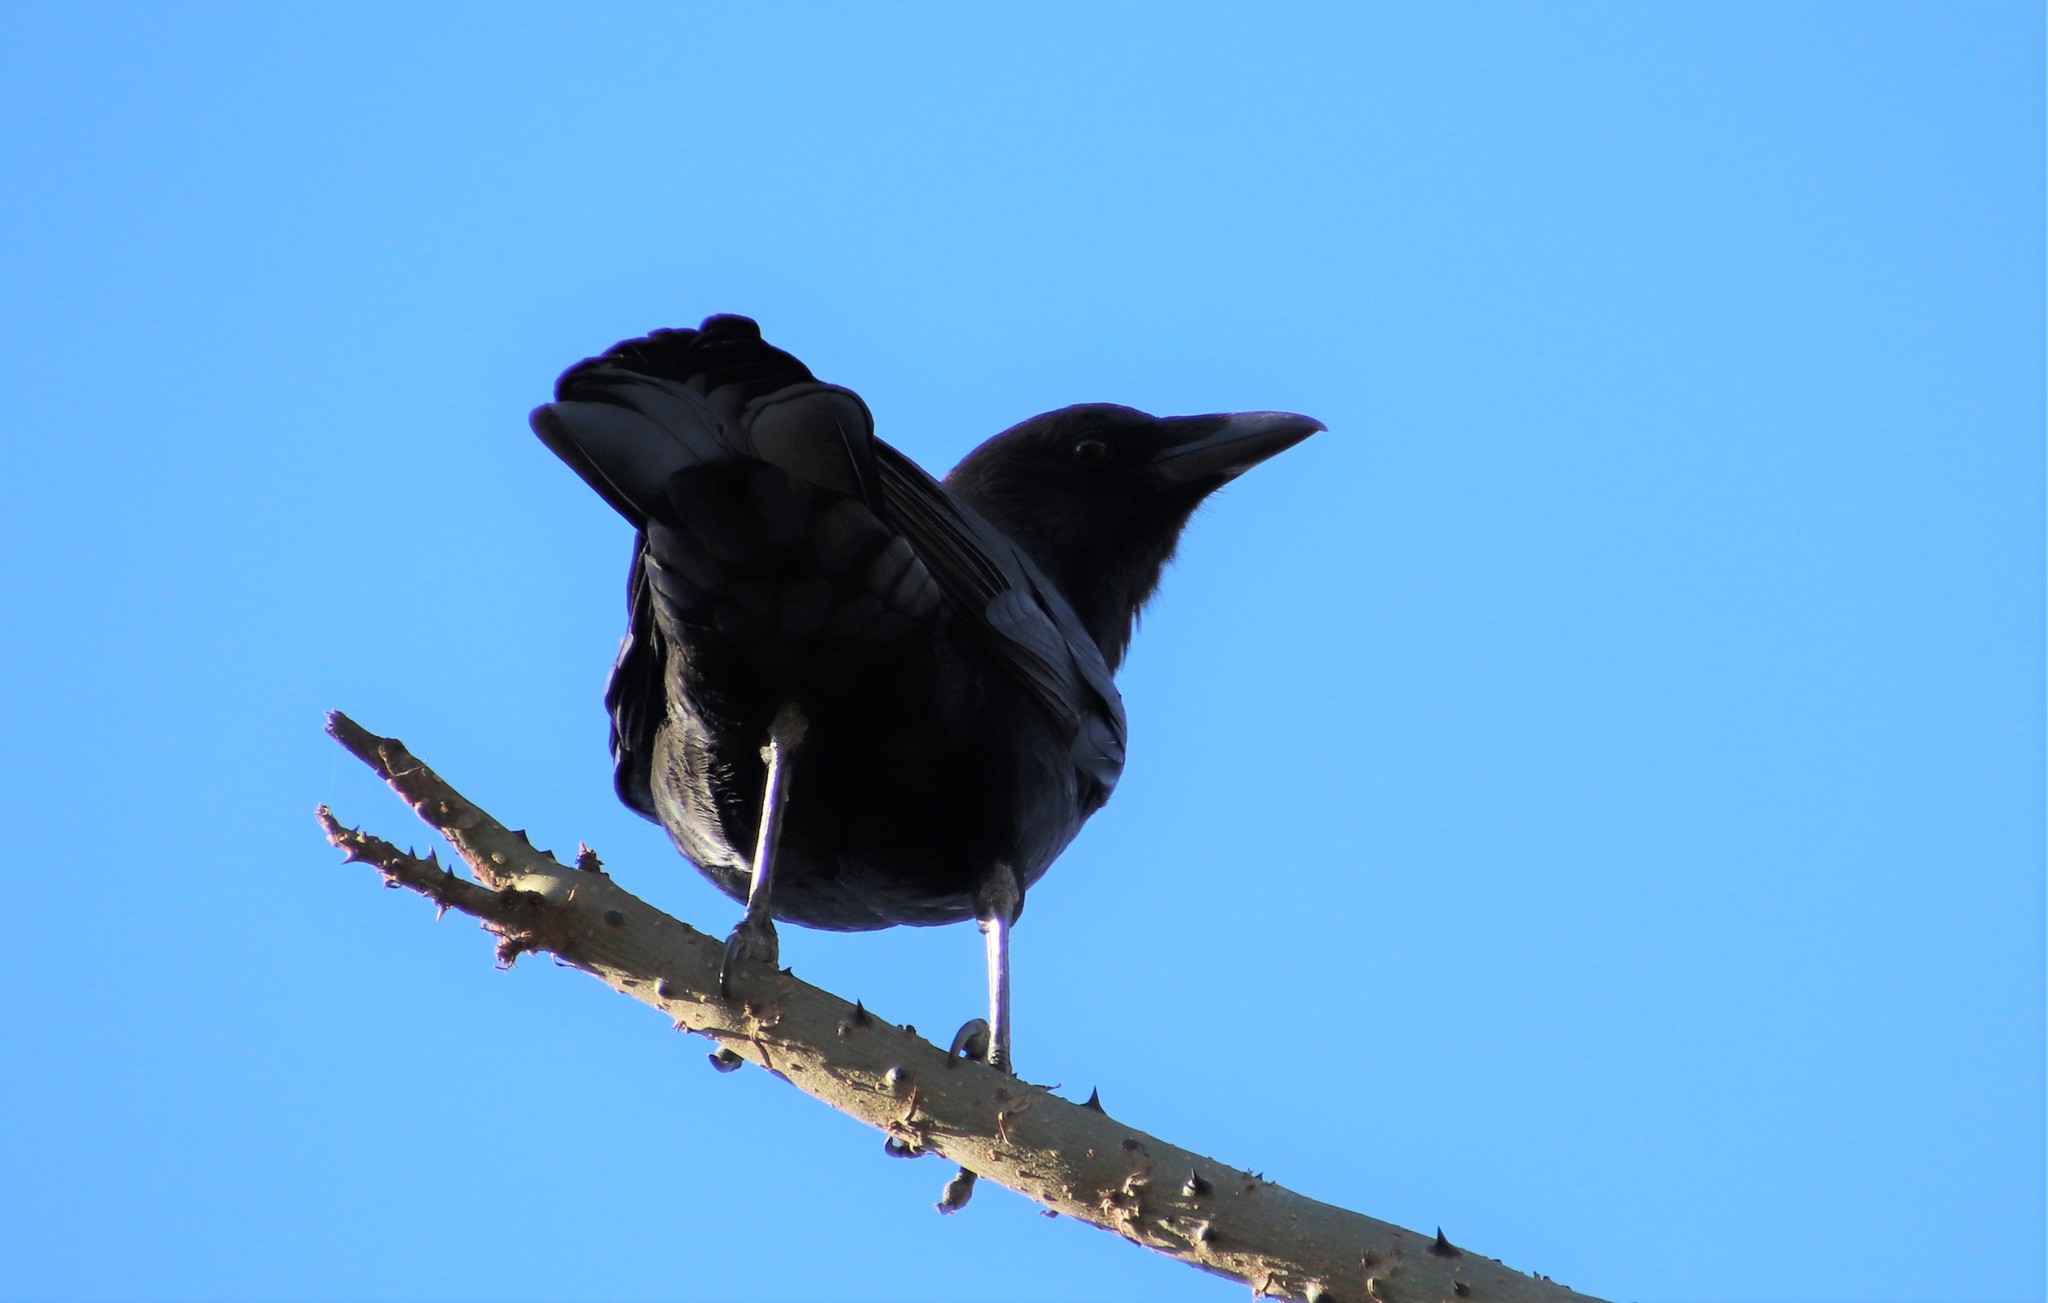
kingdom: Animalia
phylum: Chordata
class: Aves
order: Passeriformes
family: Corvidae
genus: Corvus
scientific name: Corvus brachyrhynchos
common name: American crow
